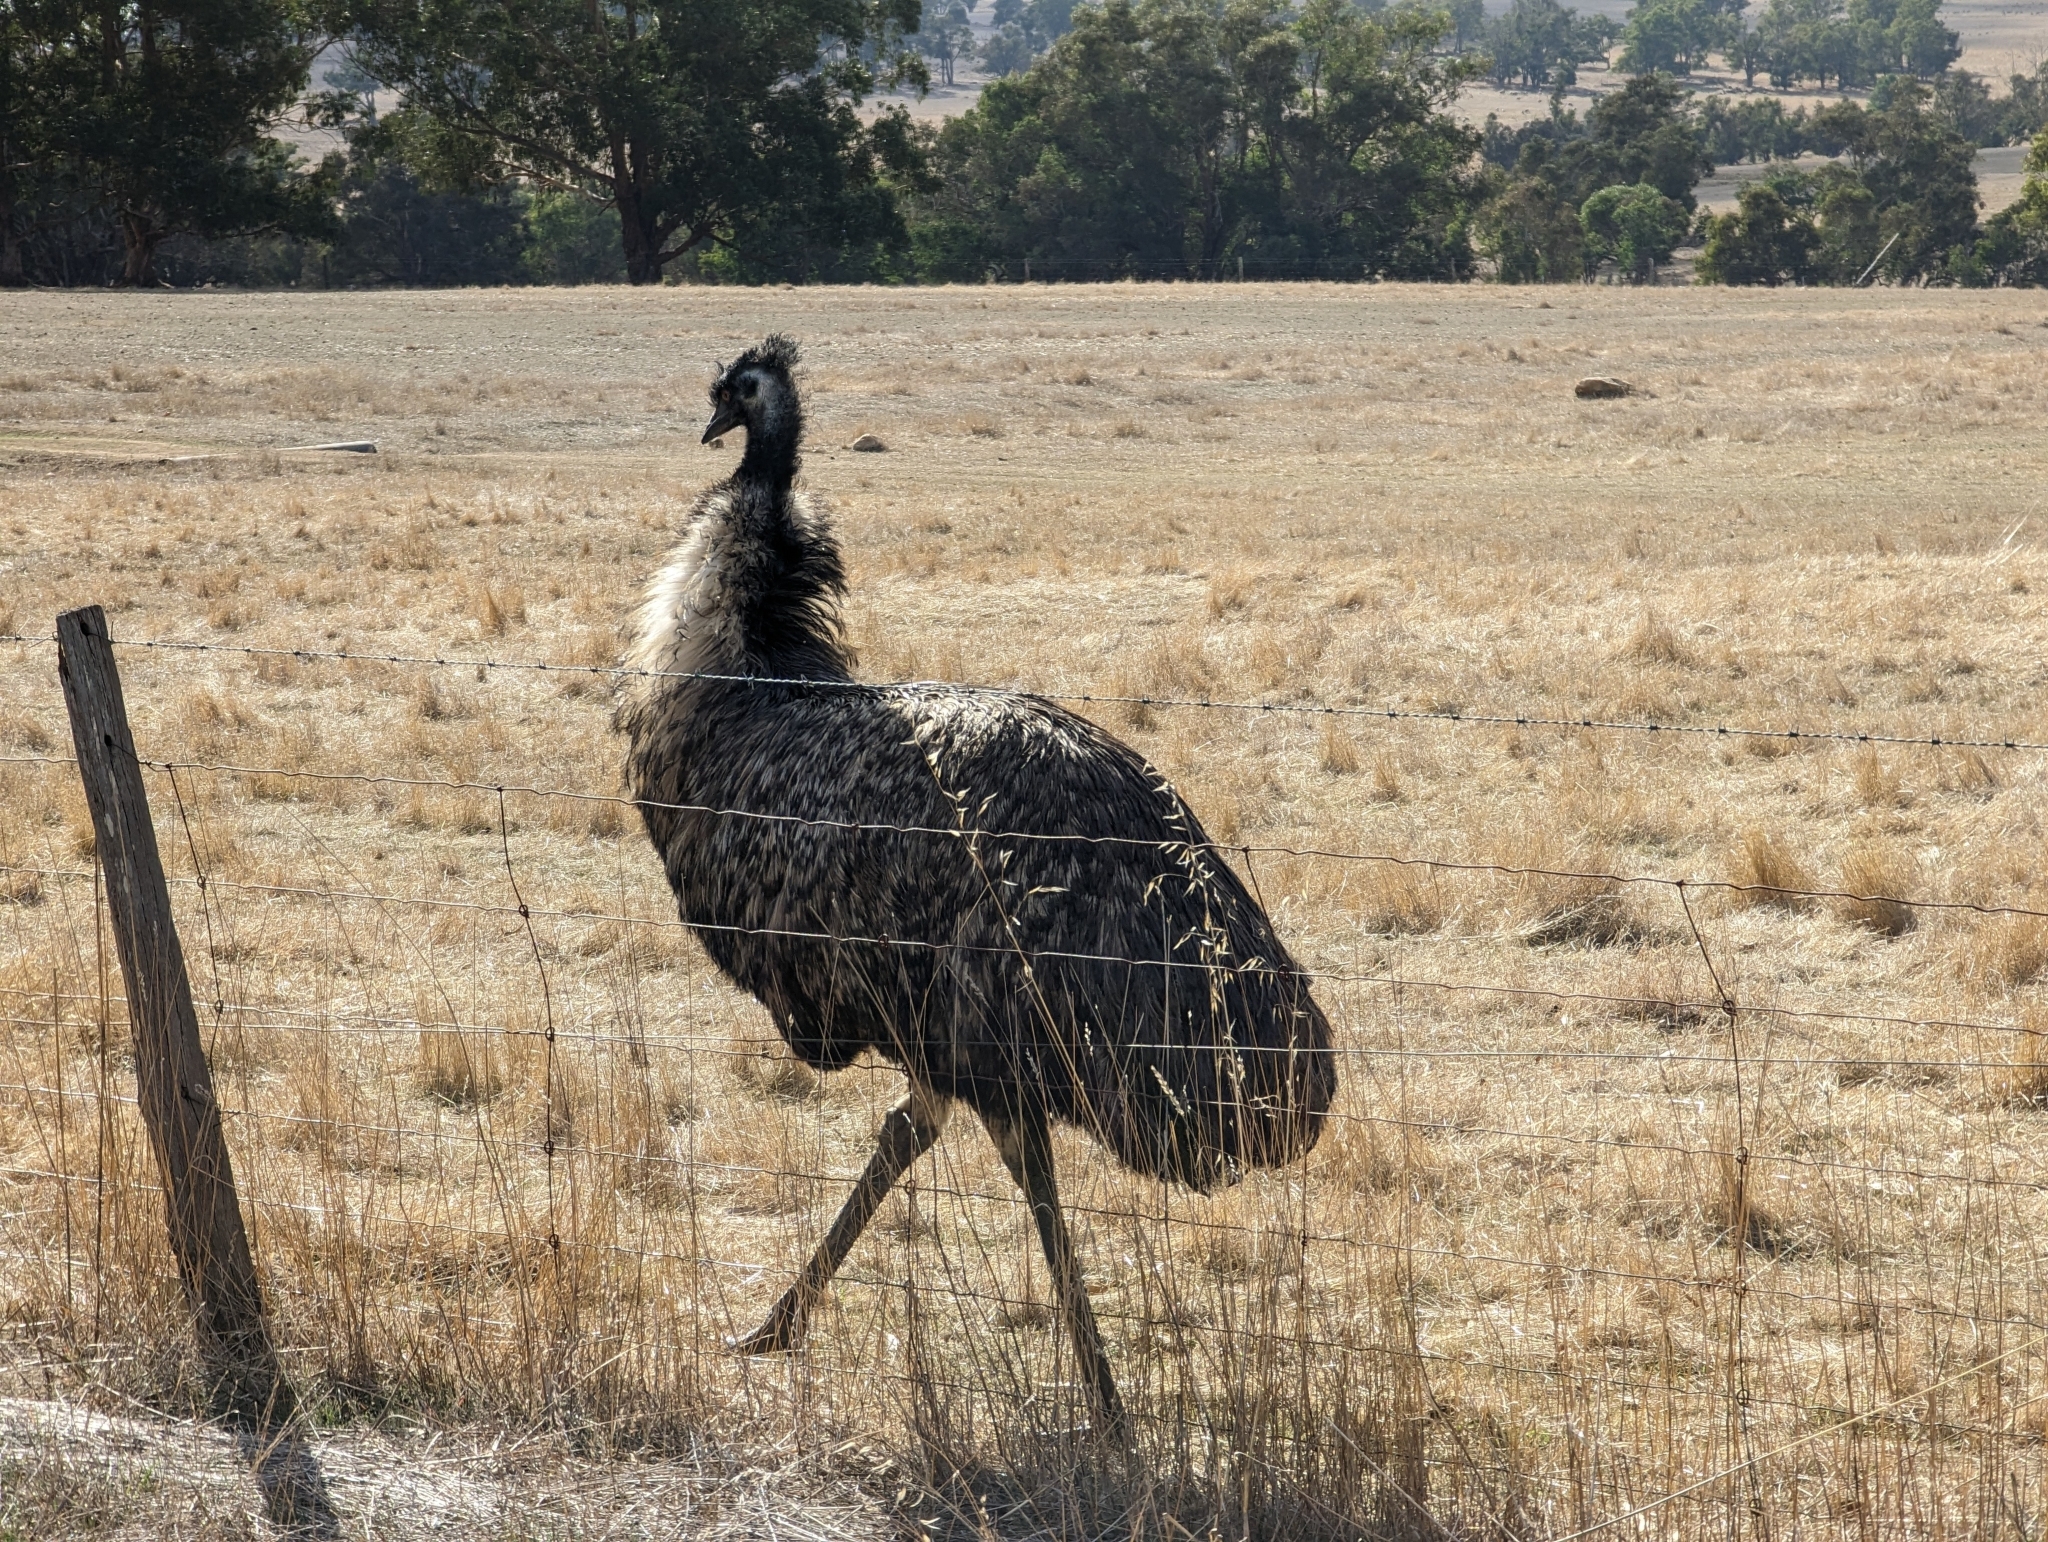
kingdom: Animalia
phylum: Chordata
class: Aves
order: Casuariiformes
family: Dromaiidae
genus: Dromaius
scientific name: Dromaius novaehollandiae
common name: Emu
